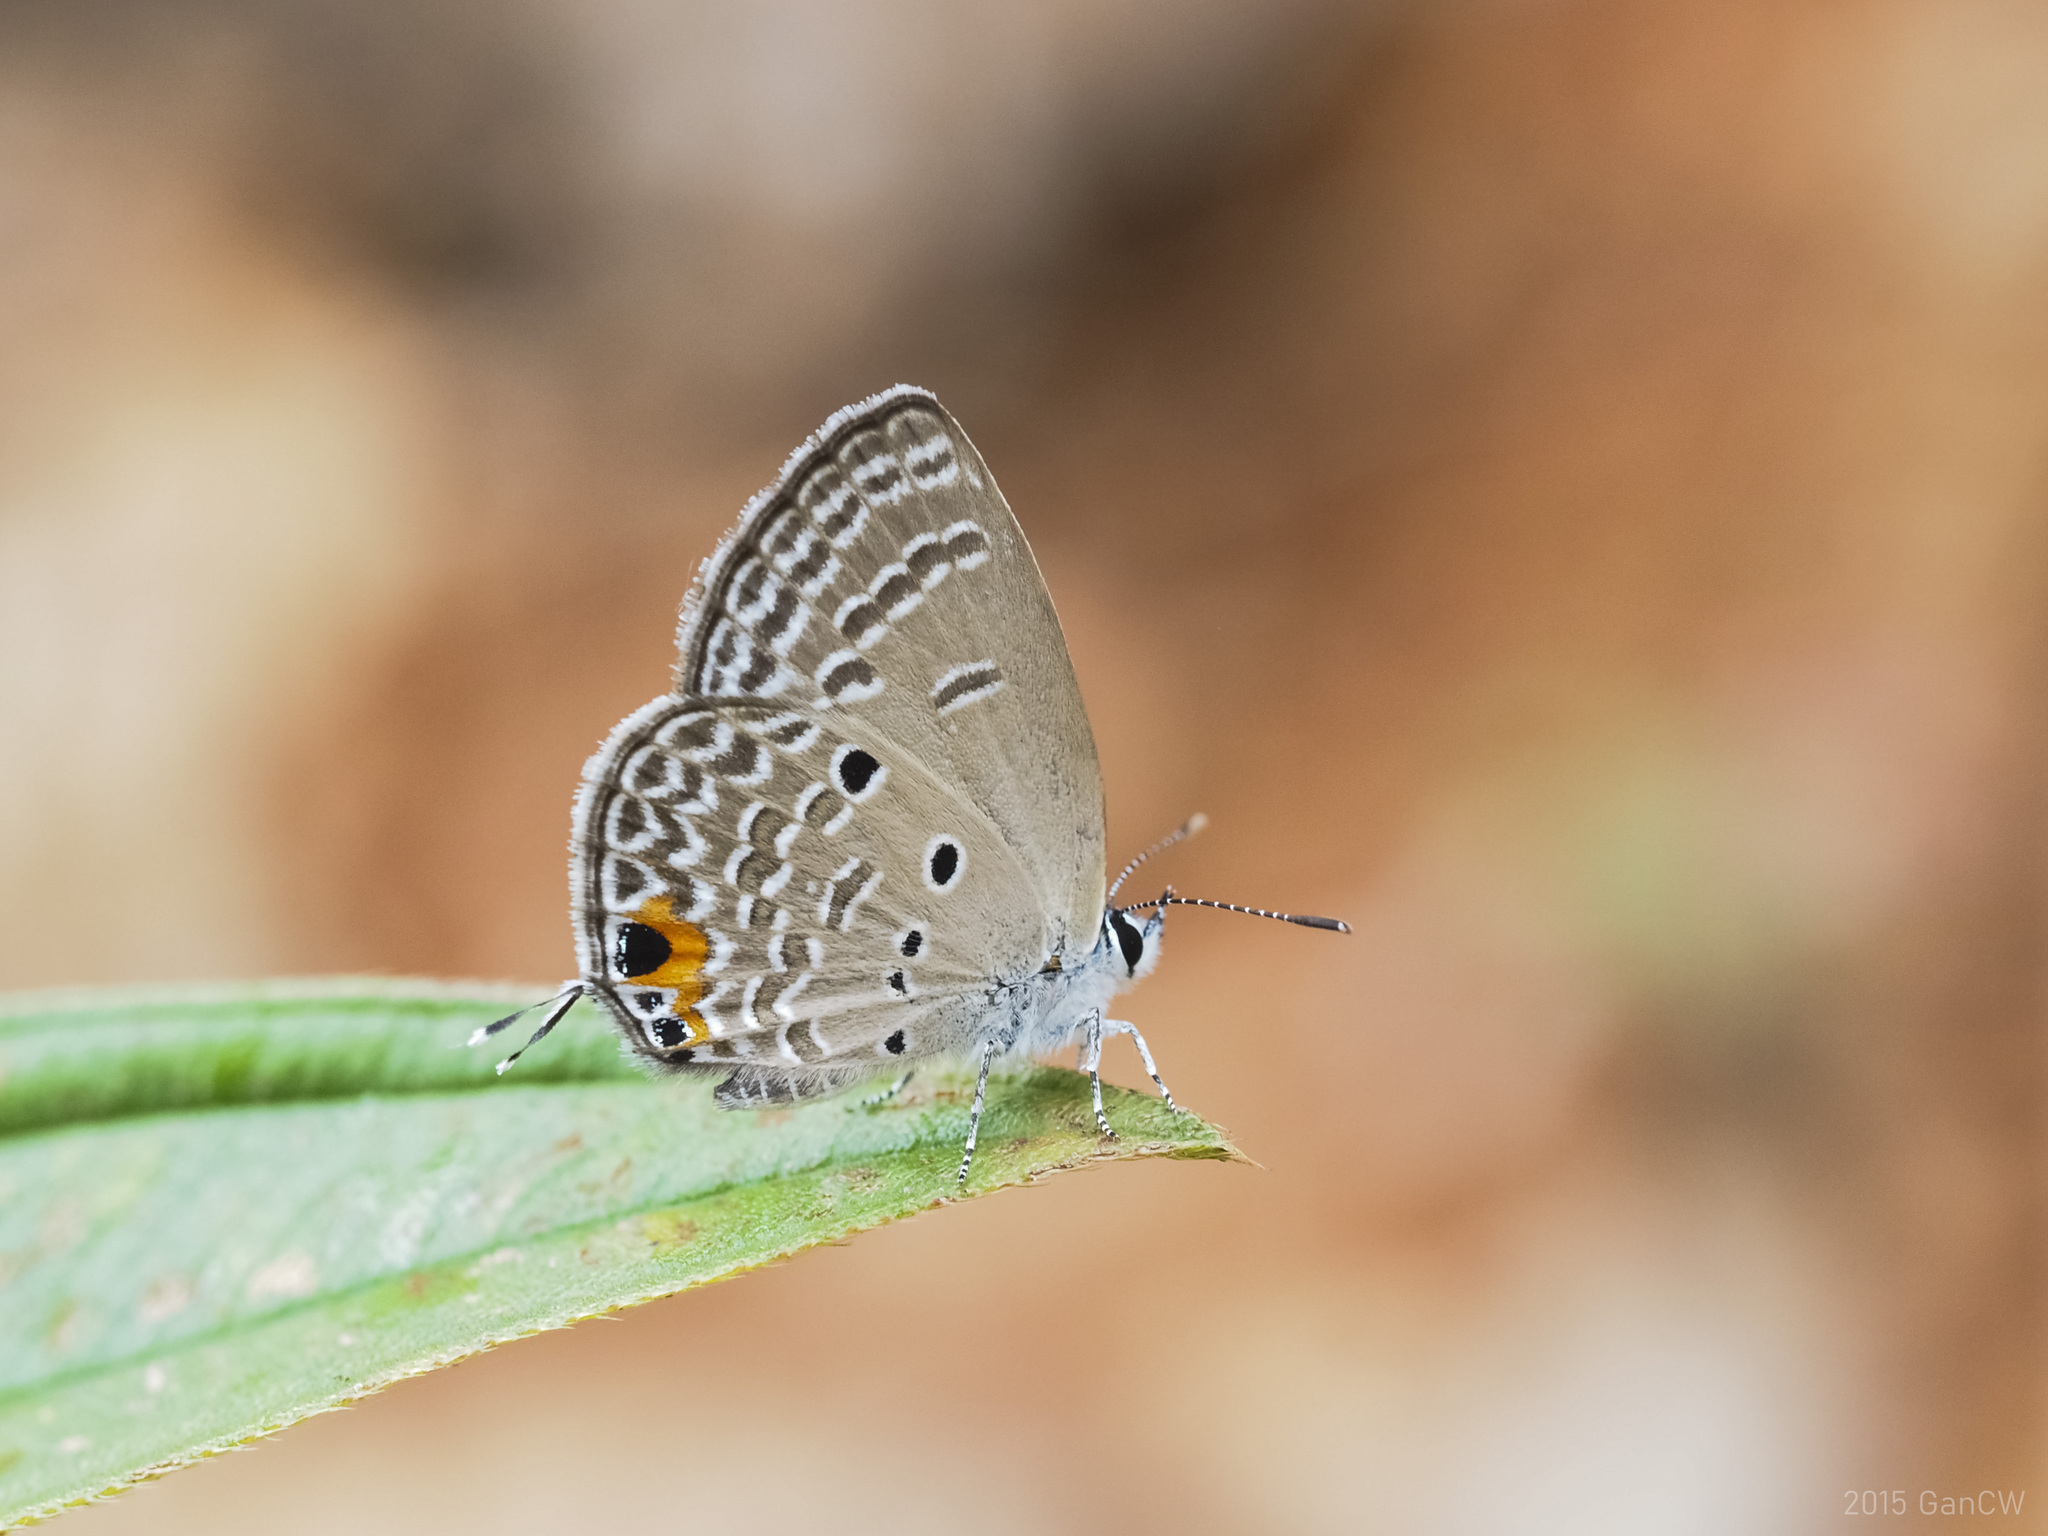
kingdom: Animalia
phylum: Arthropoda
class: Insecta
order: Lepidoptera
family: Lycaenidae
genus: Luthrodes
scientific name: Luthrodes pandava
